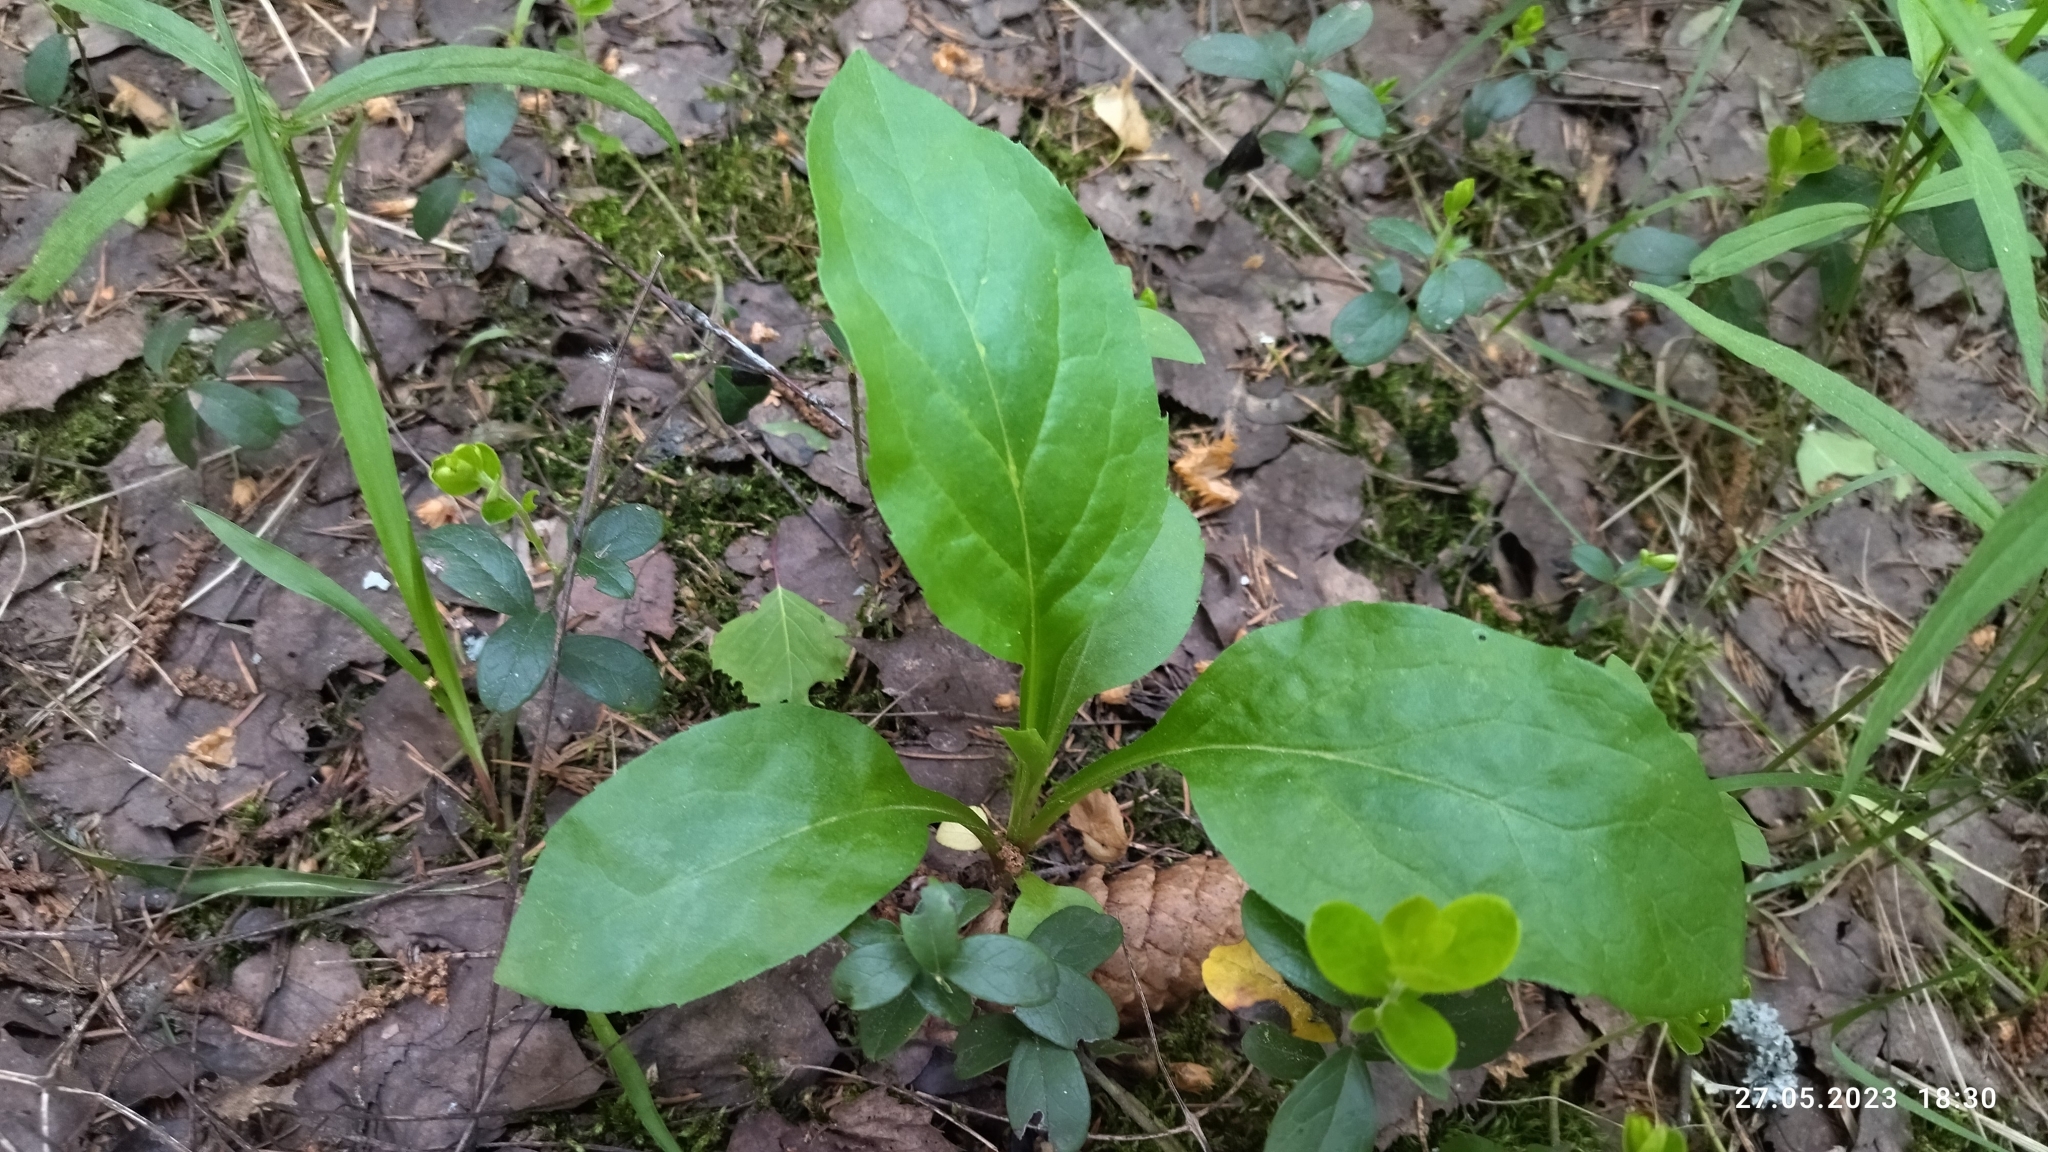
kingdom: Plantae
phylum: Tracheophyta
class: Magnoliopsida
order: Asterales
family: Asteraceae
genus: Solidago
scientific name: Solidago virgaurea
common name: Goldenrod
